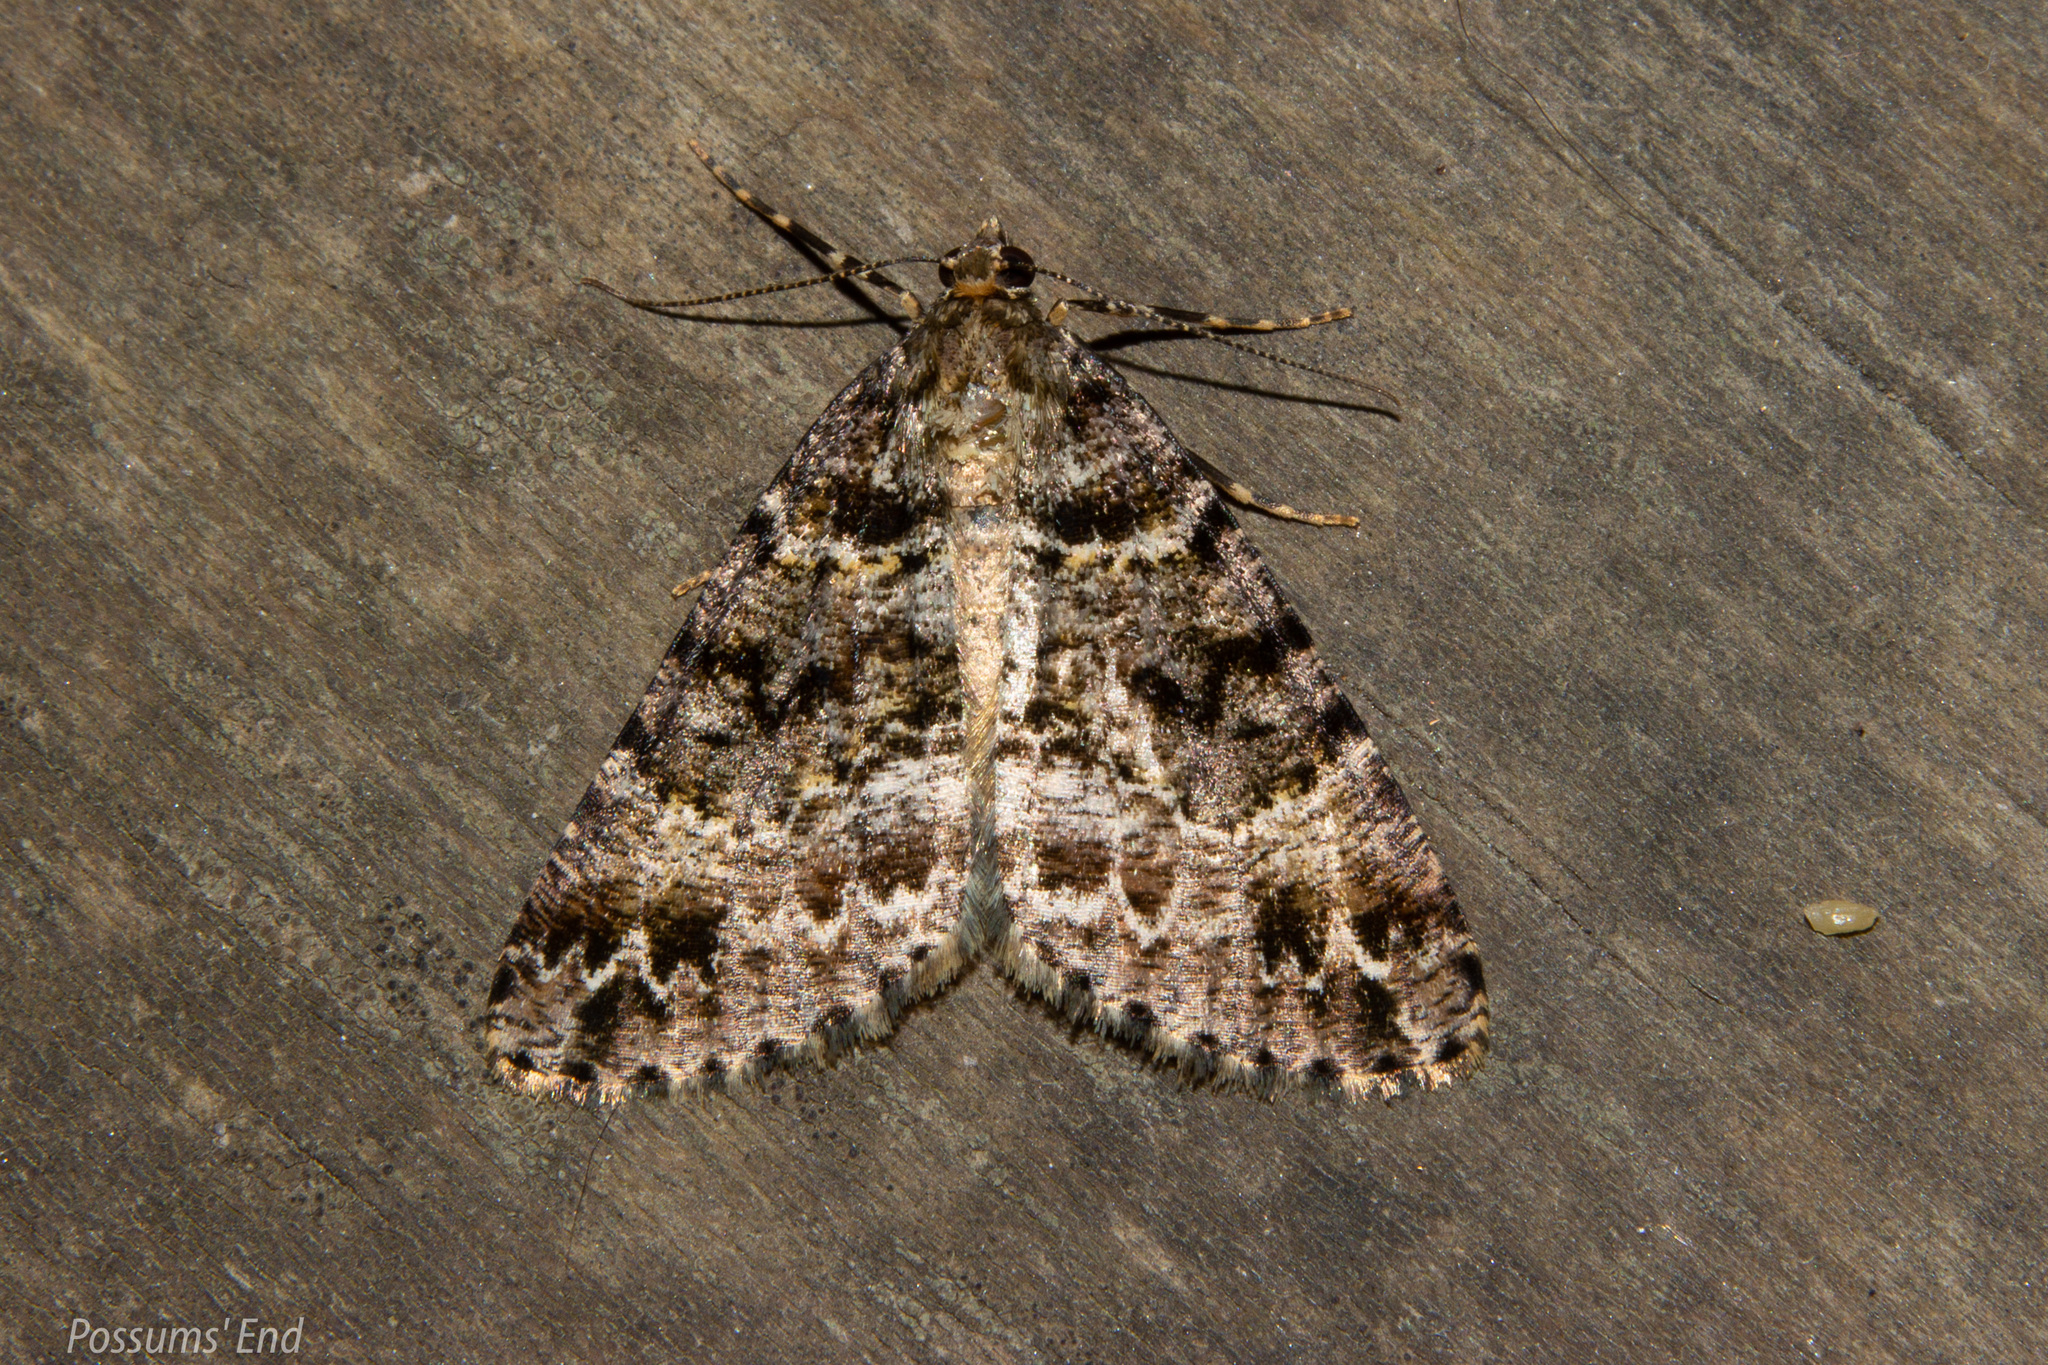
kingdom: Animalia
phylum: Arthropoda
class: Insecta
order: Lepidoptera
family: Geometridae
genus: Pseudocoremia
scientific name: Pseudocoremia productata
